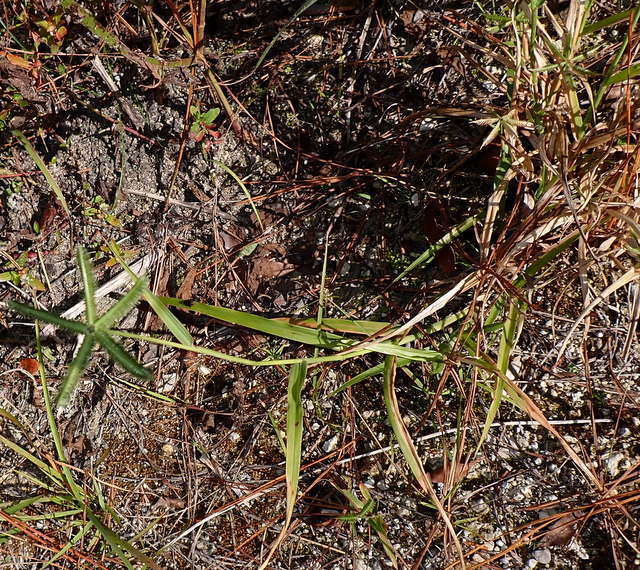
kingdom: Plantae
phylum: Tracheophyta
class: Liliopsida
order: Poales
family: Poaceae
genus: Dactyloctenium
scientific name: Dactyloctenium aegyptium
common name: Egyptian grass
